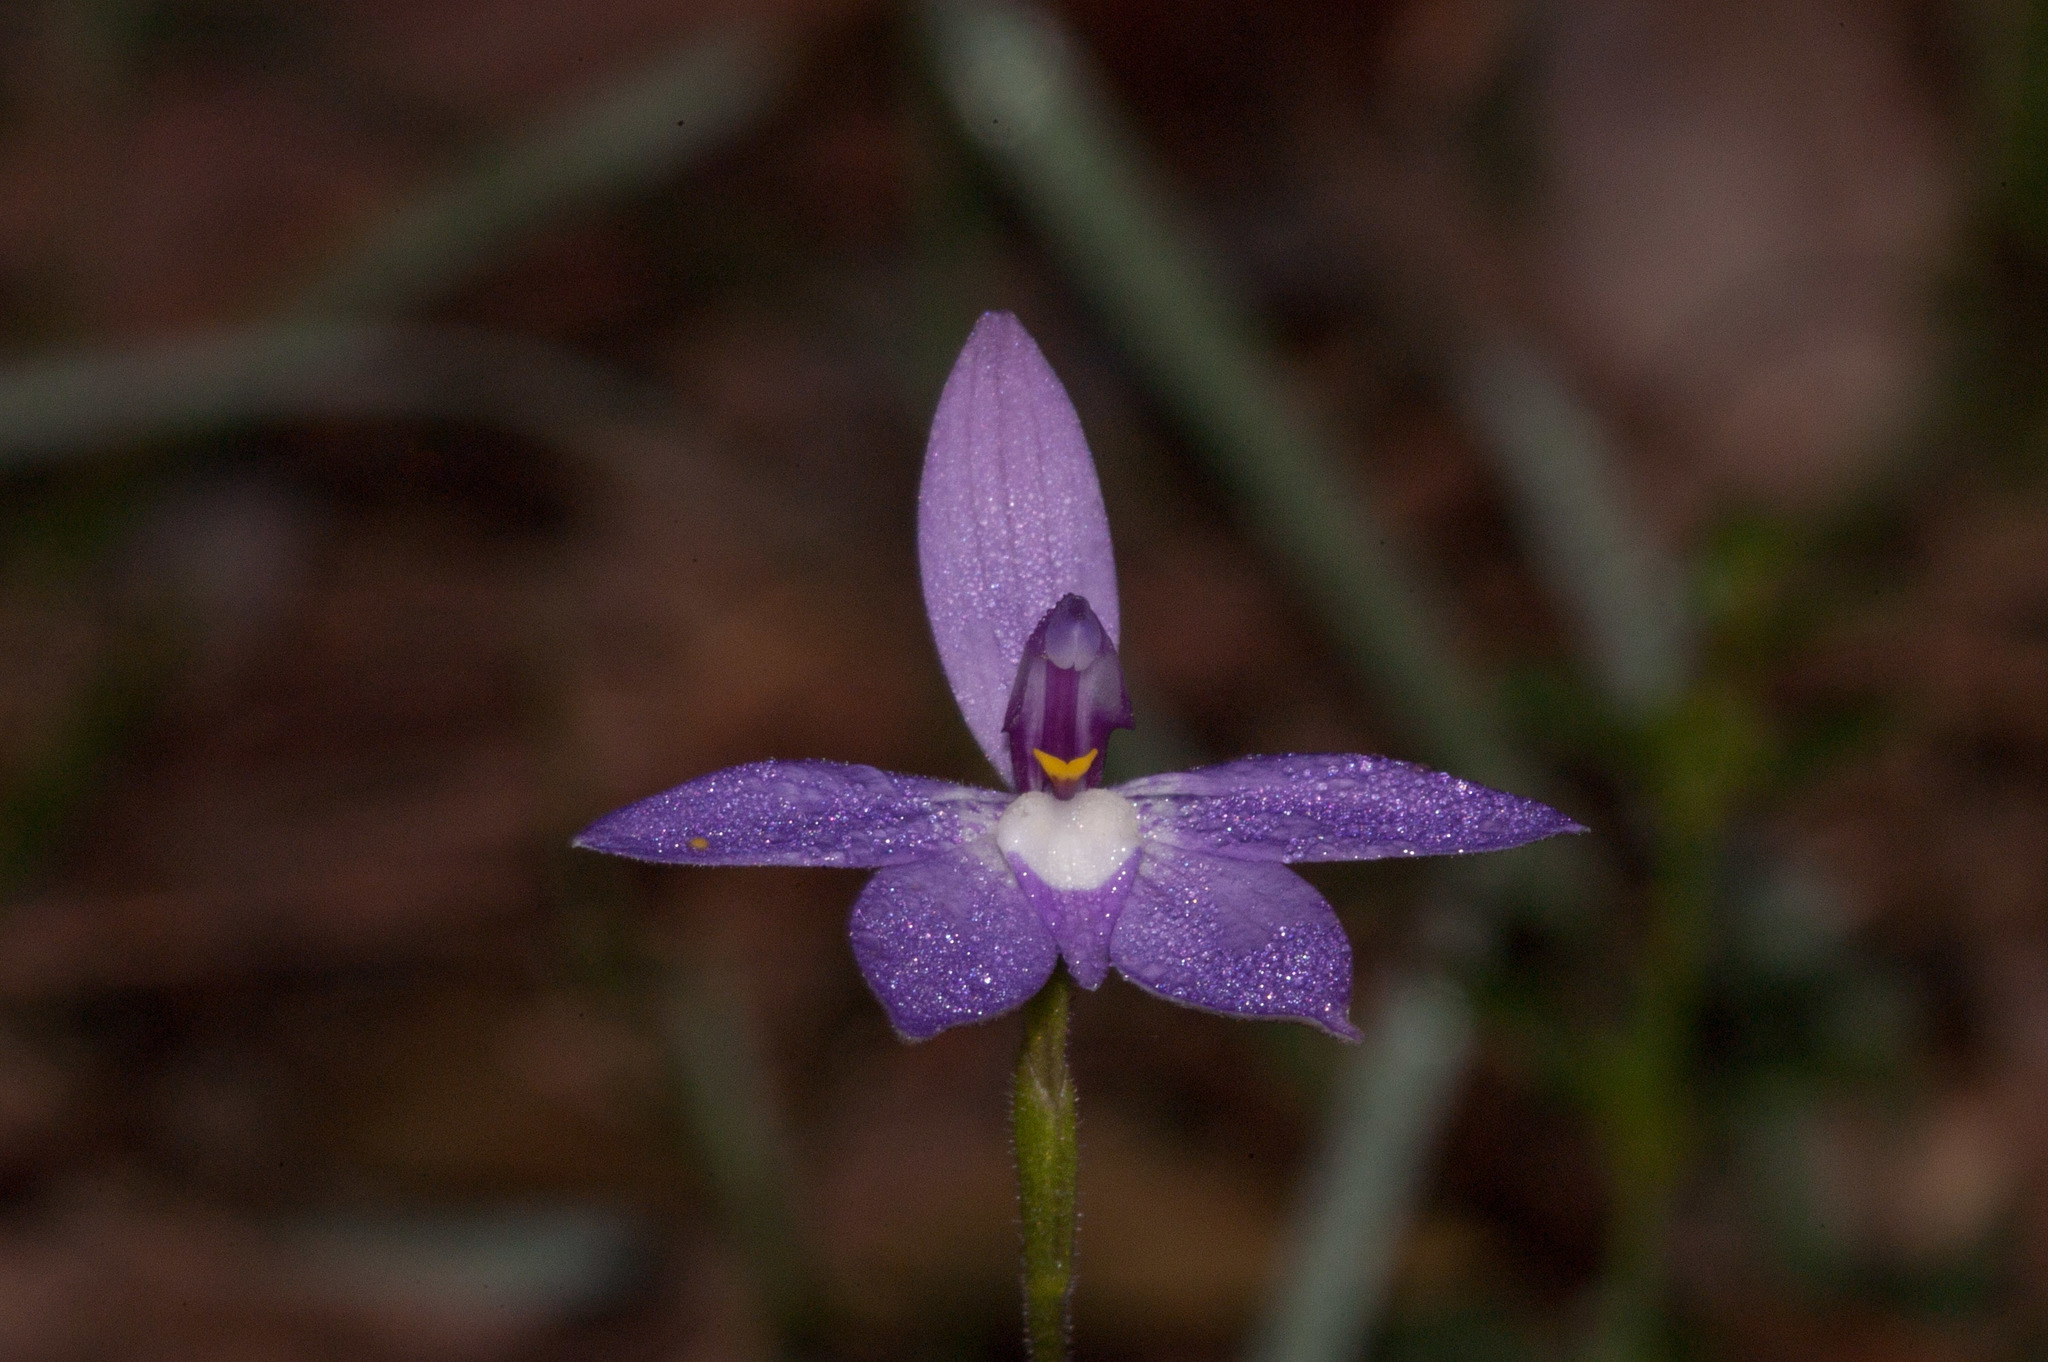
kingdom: Plantae
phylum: Tracheophyta
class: Liliopsida
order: Asparagales
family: Orchidaceae
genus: Caladenia
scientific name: Caladenia major
